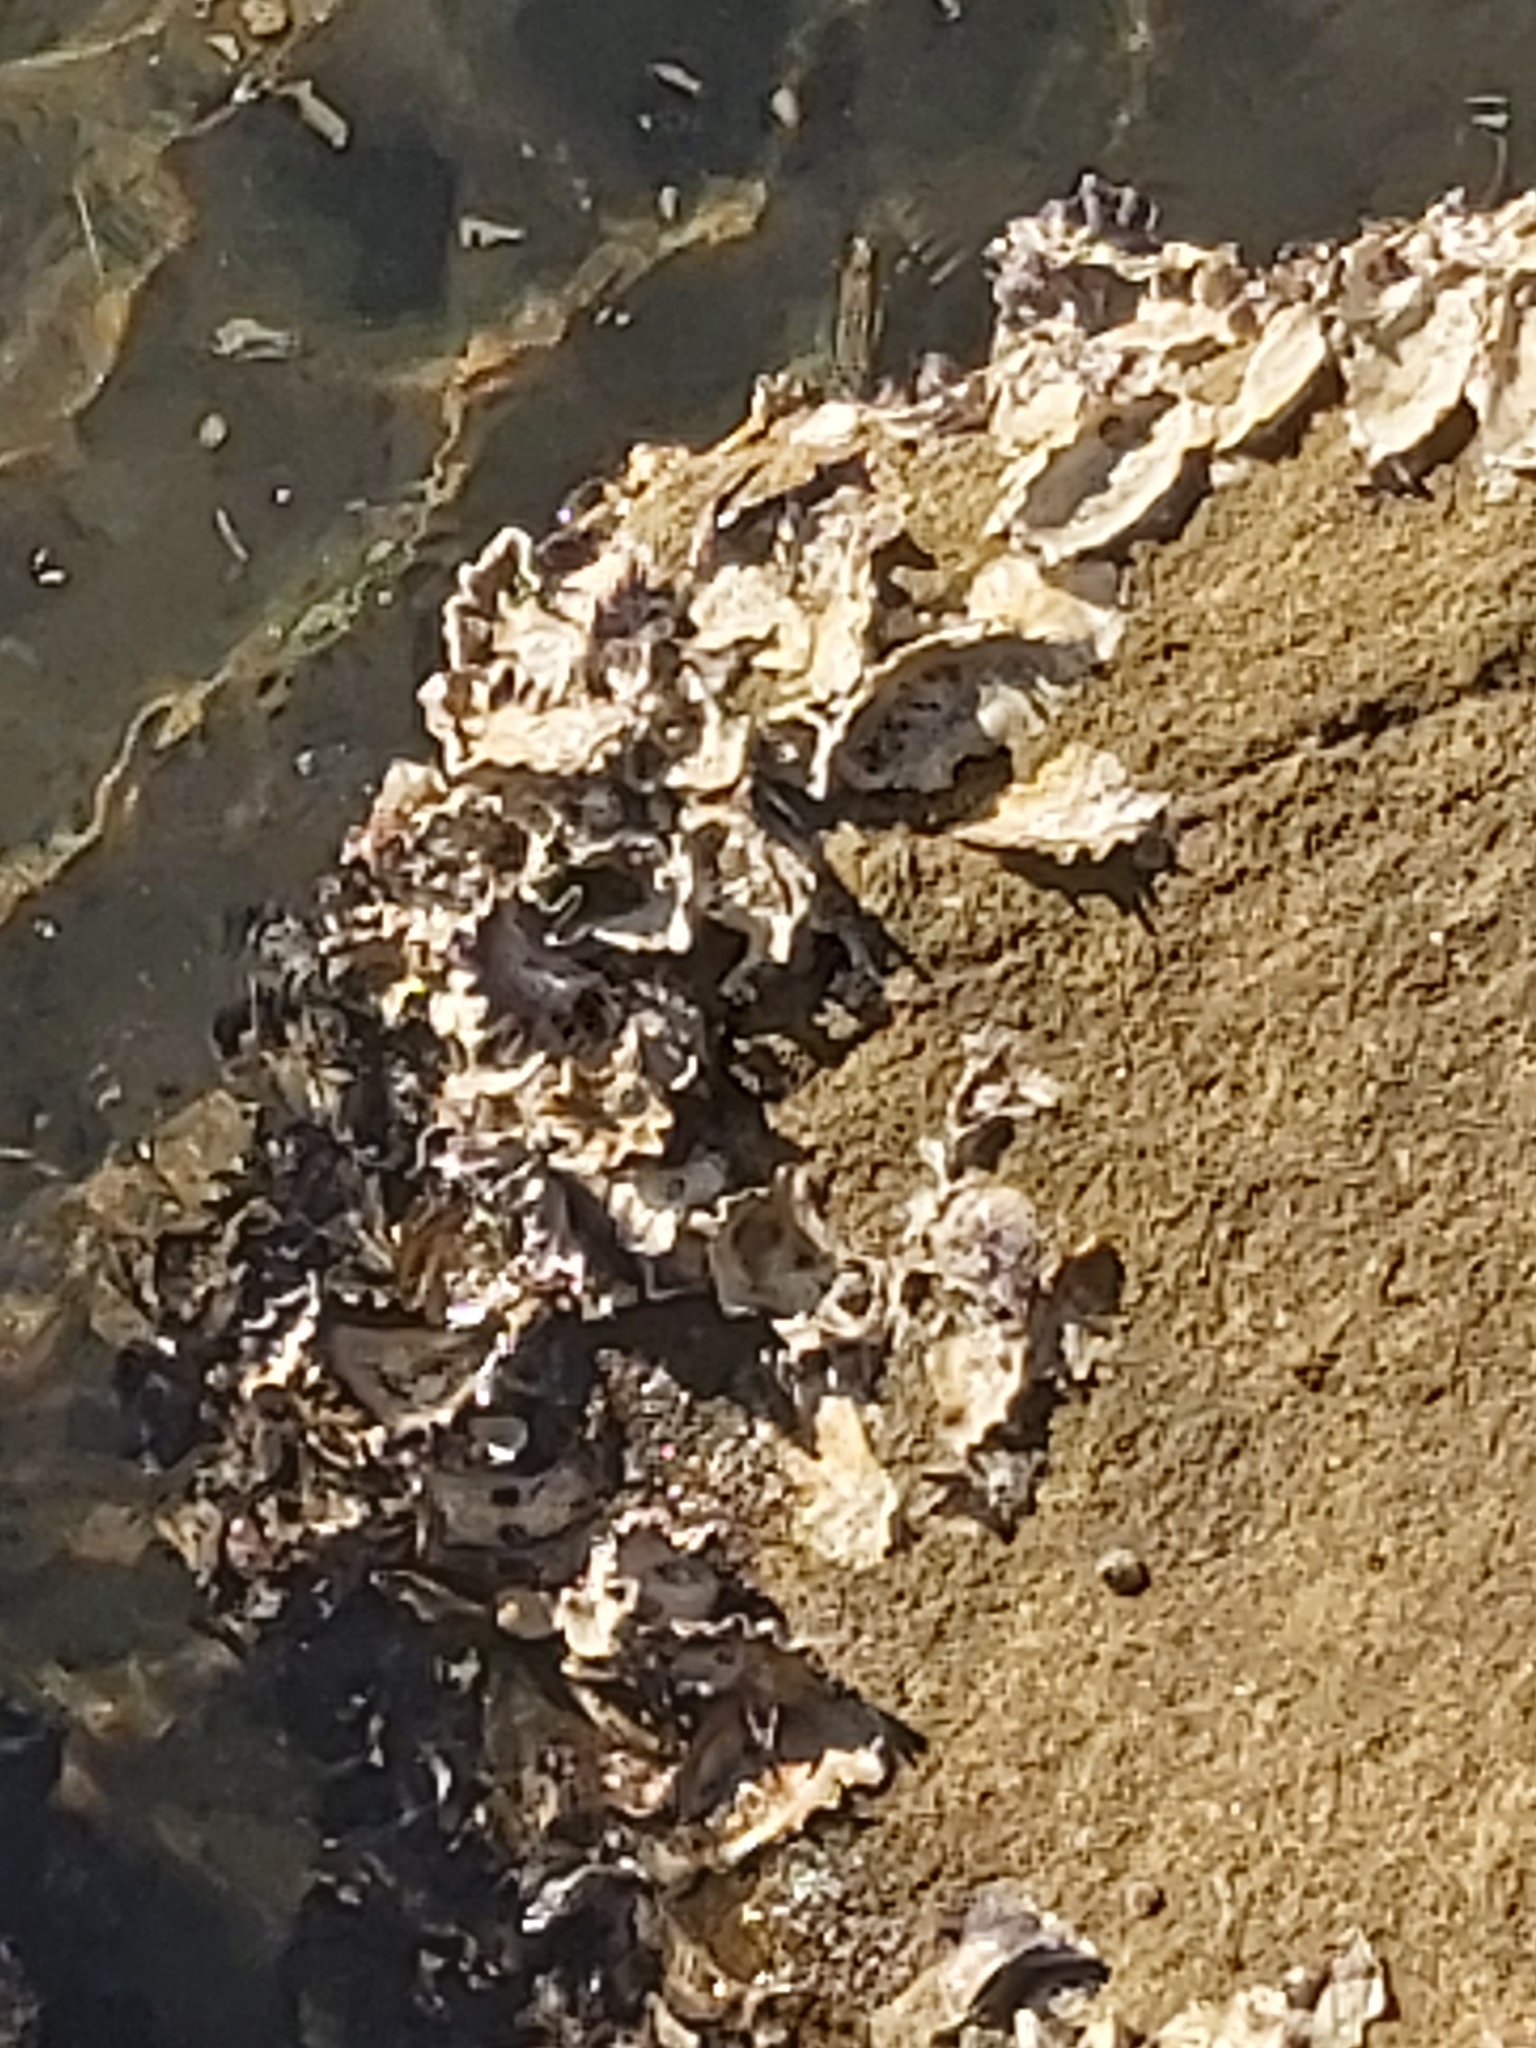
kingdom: Animalia
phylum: Mollusca
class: Bivalvia
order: Ostreida
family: Ostreidae
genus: Saccostrea
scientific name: Saccostrea glomerata
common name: Sydney cupped oyster
